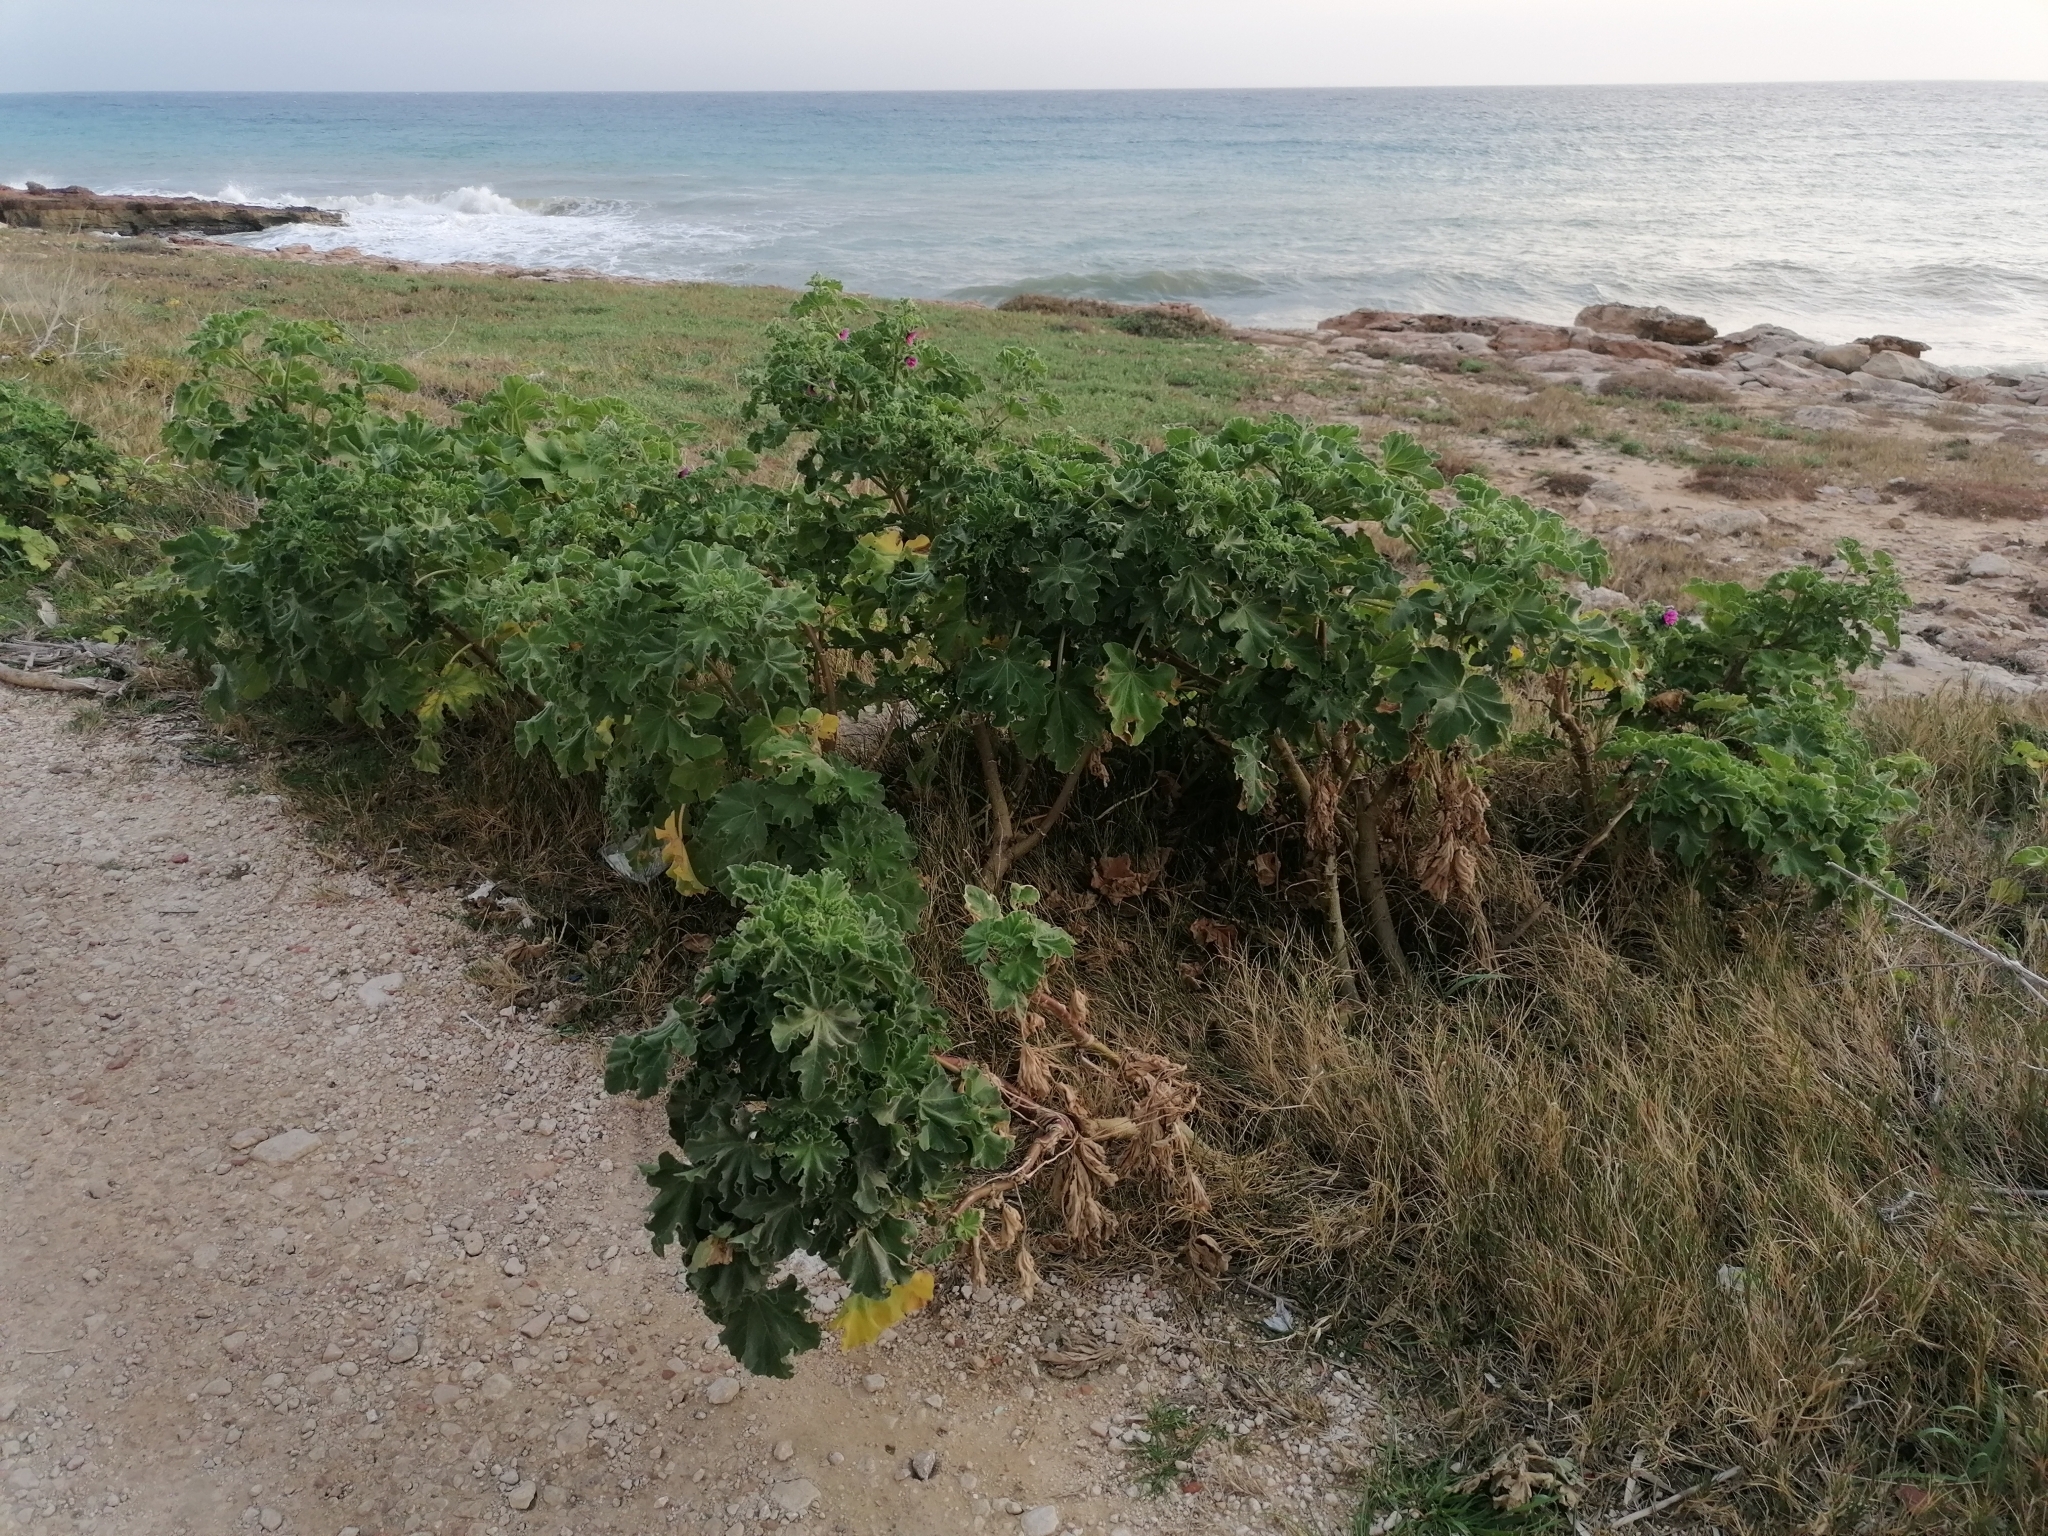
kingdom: Plantae
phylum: Tracheophyta
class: Magnoliopsida
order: Malvales
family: Malvaceae
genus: Malva
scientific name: Malva arborea
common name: Tree mallow
